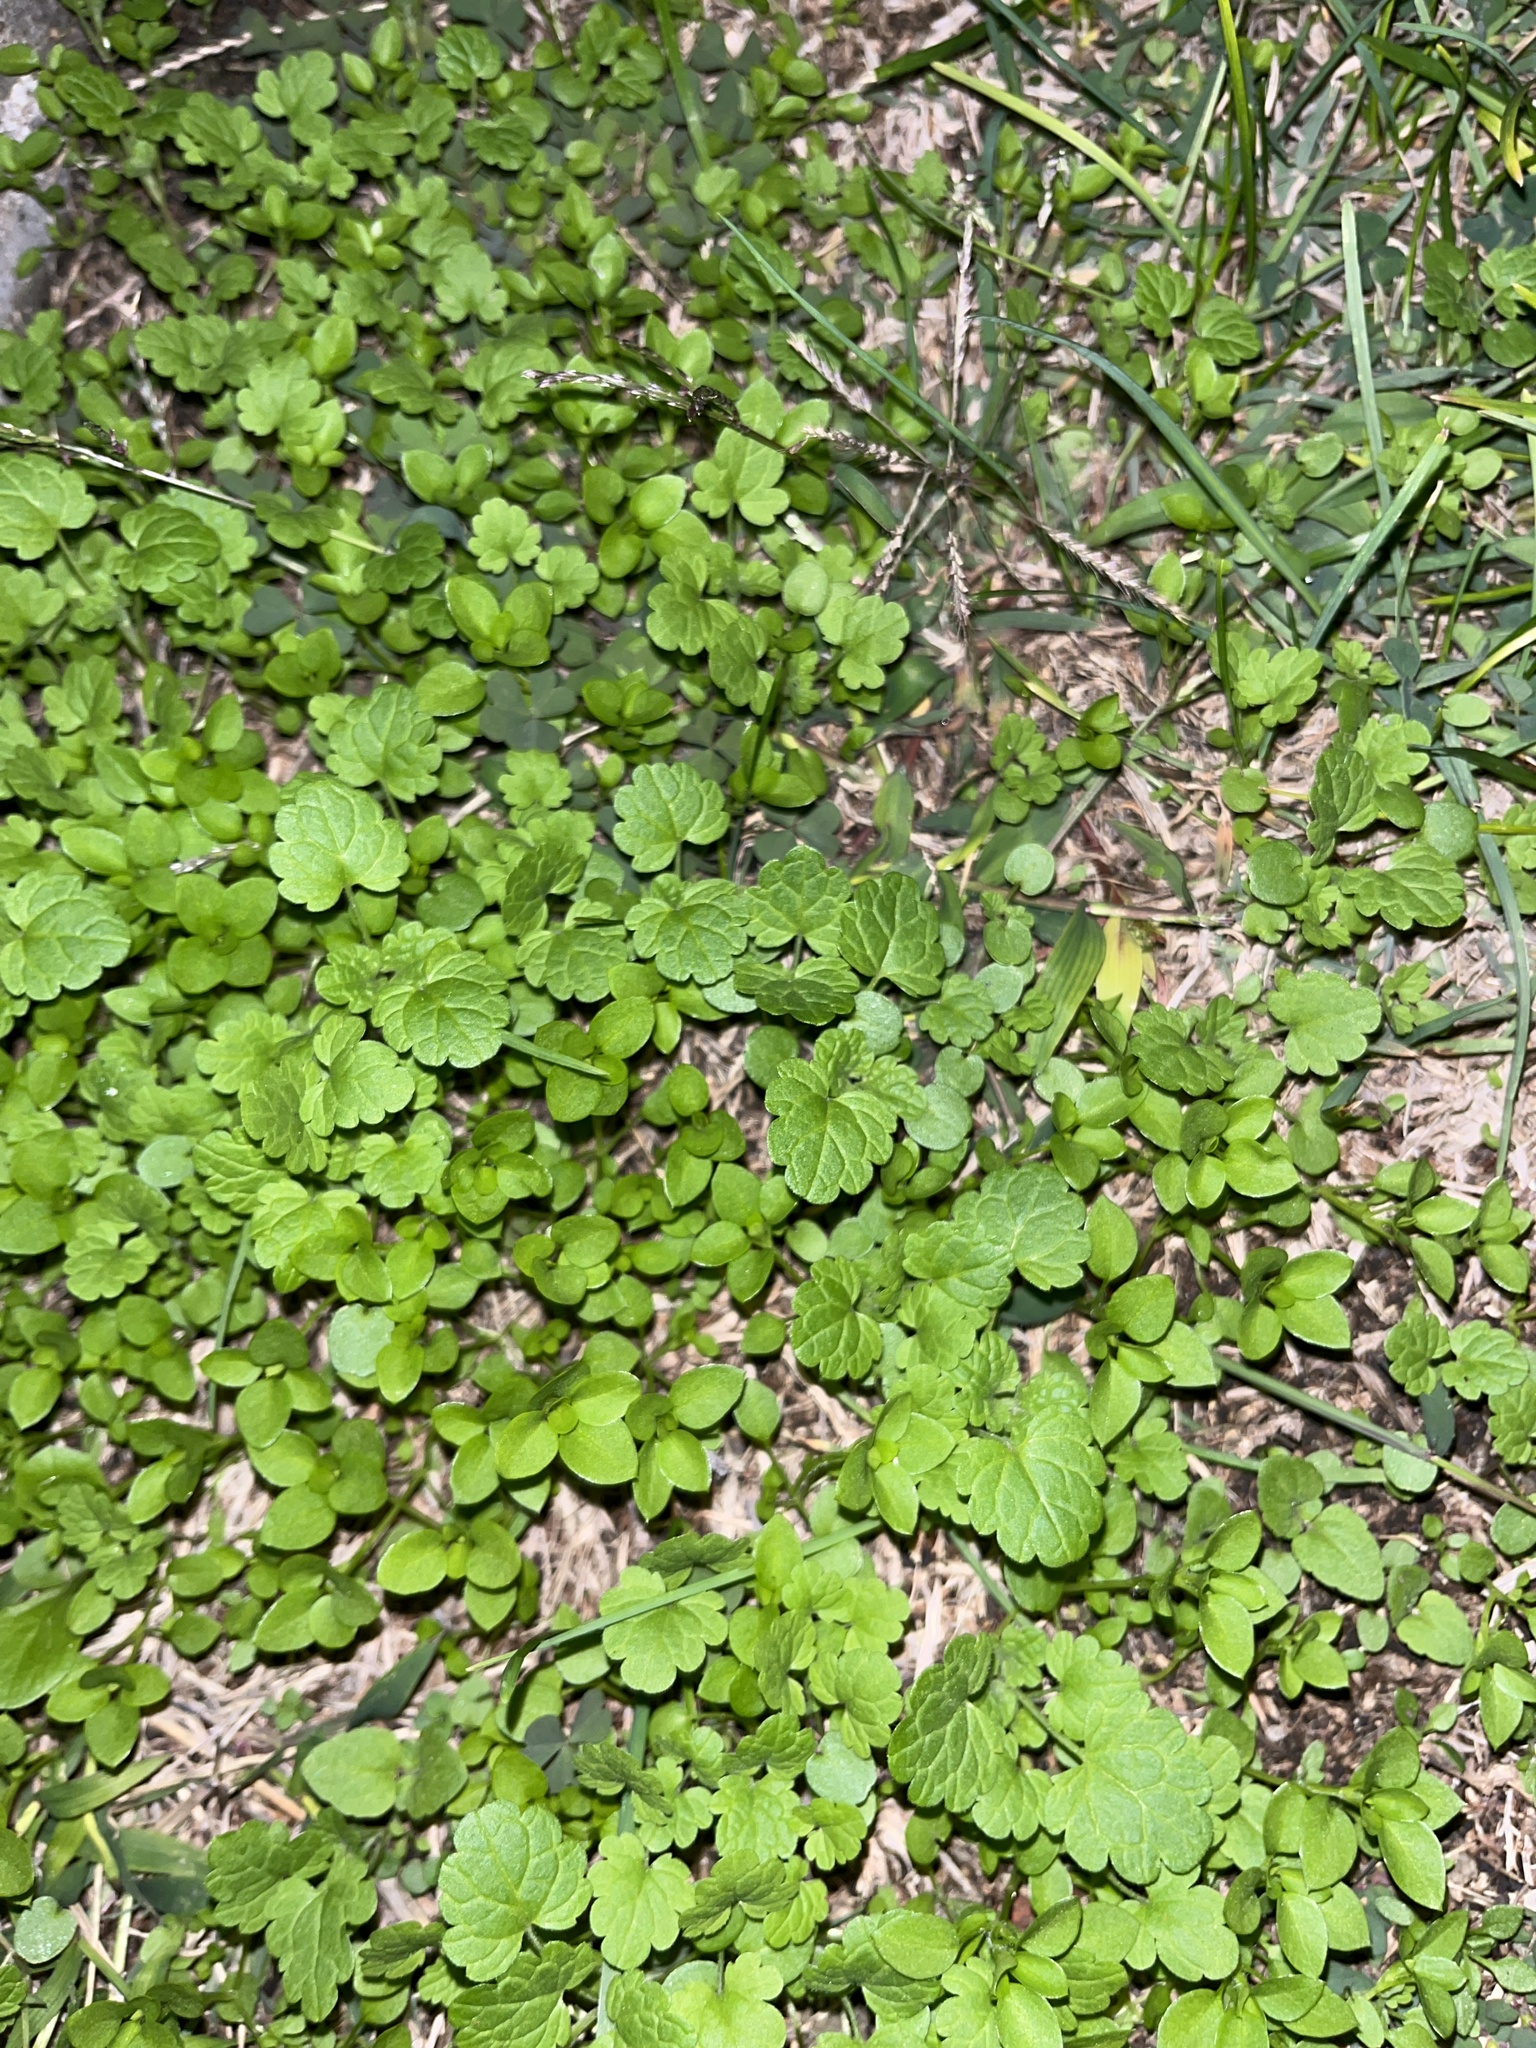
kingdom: Plantae
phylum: Tracheophyta
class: Magnoliopsida
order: Lamiales
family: Lamiaceae
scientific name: Lamiaceae
